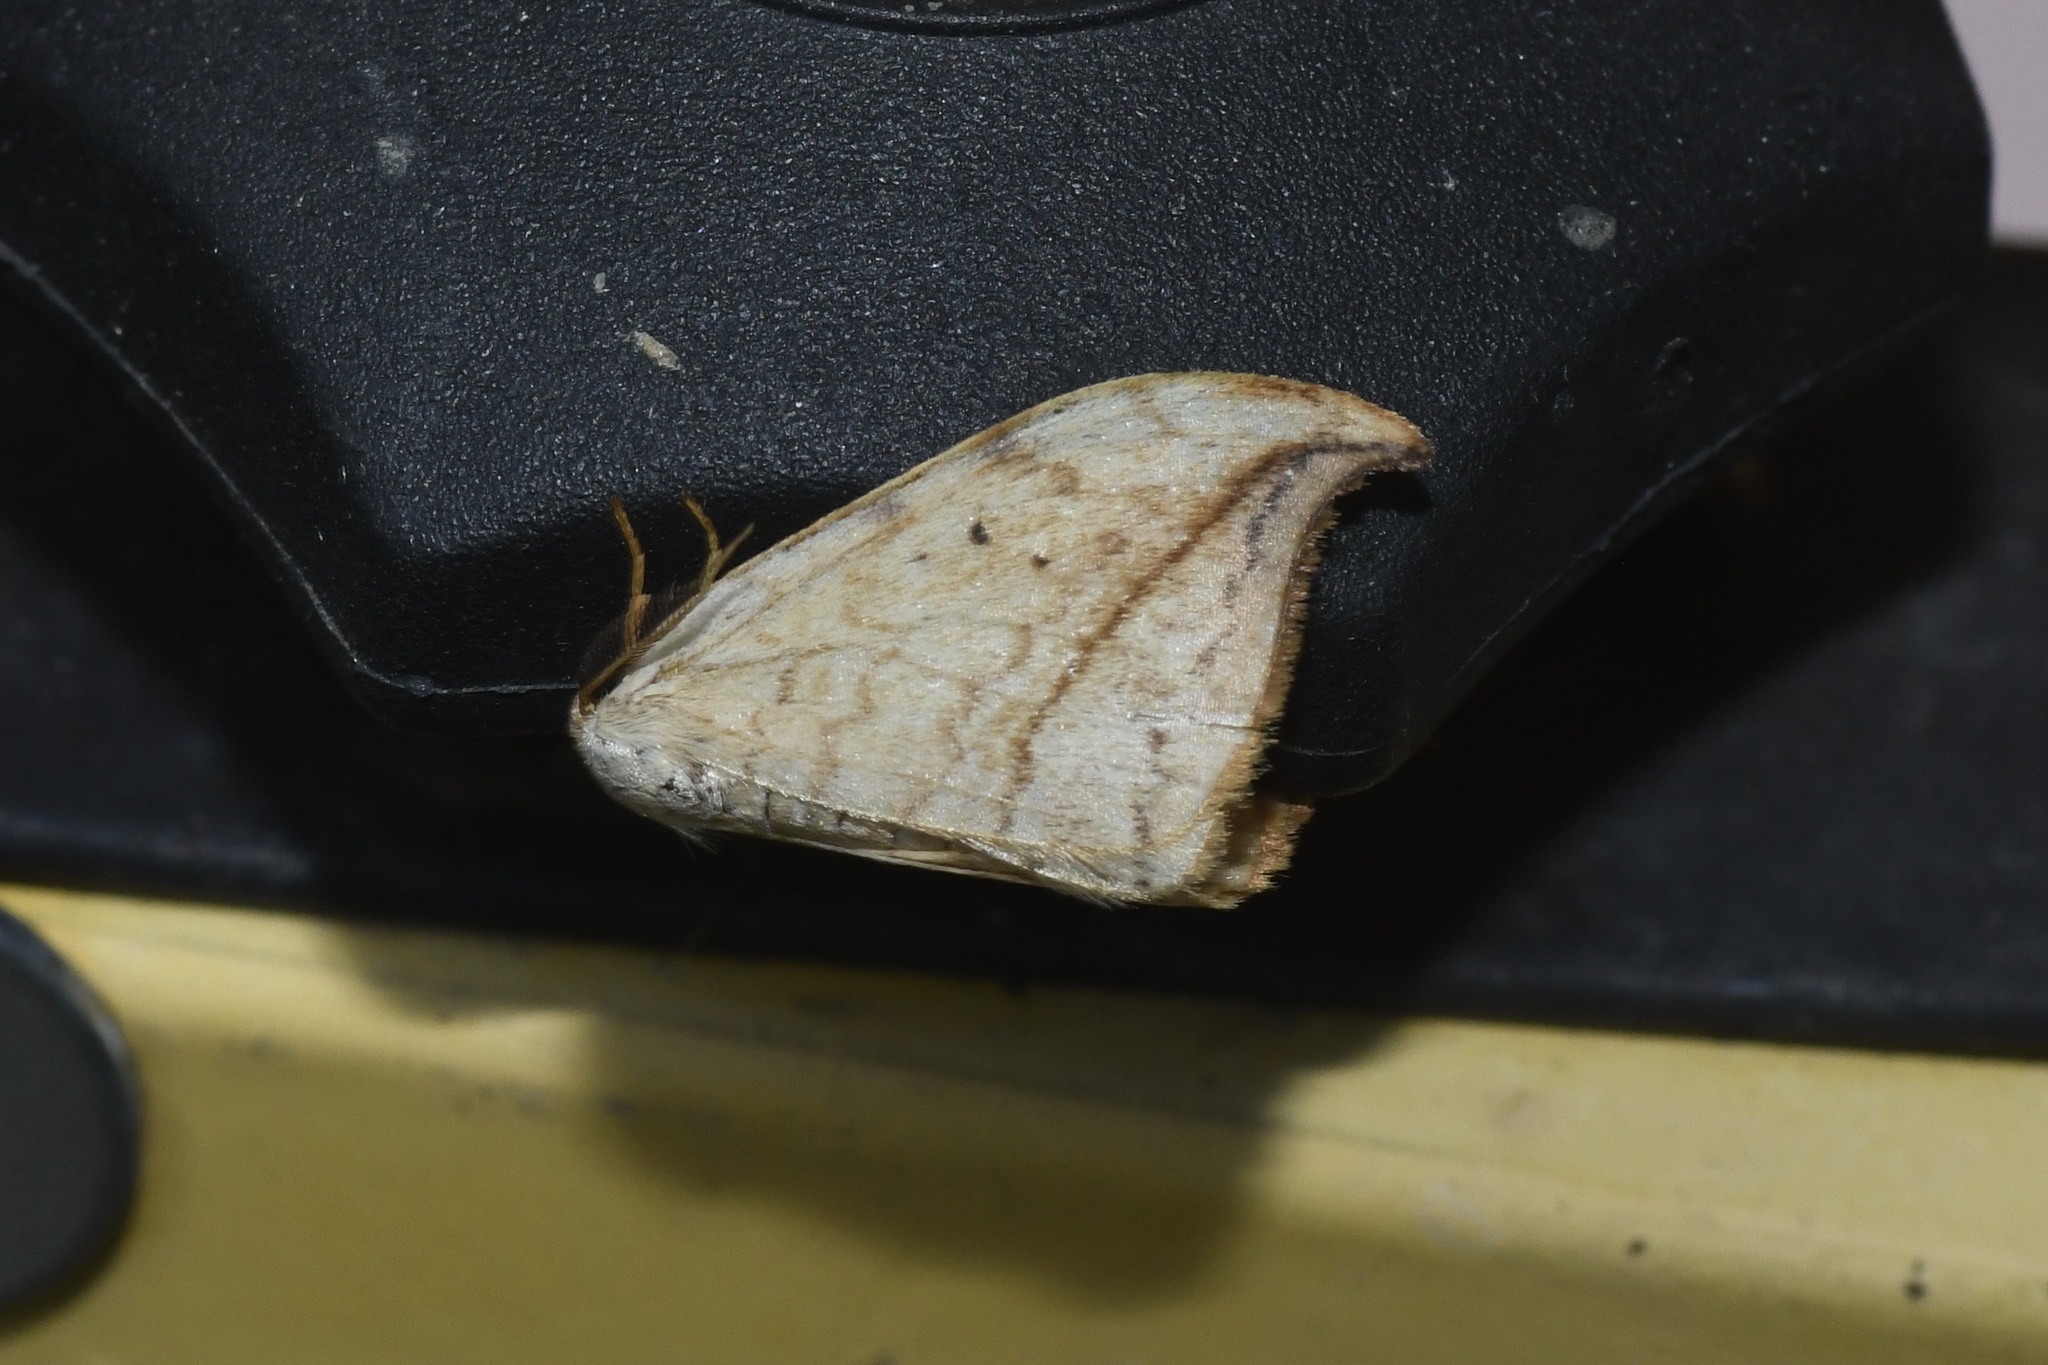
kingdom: Animalia
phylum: Arthropoda
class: Insecta
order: Lepidoptera
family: Drepanidae
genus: Drepana
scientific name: Drepana arcuata
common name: Arched hooktip moth
